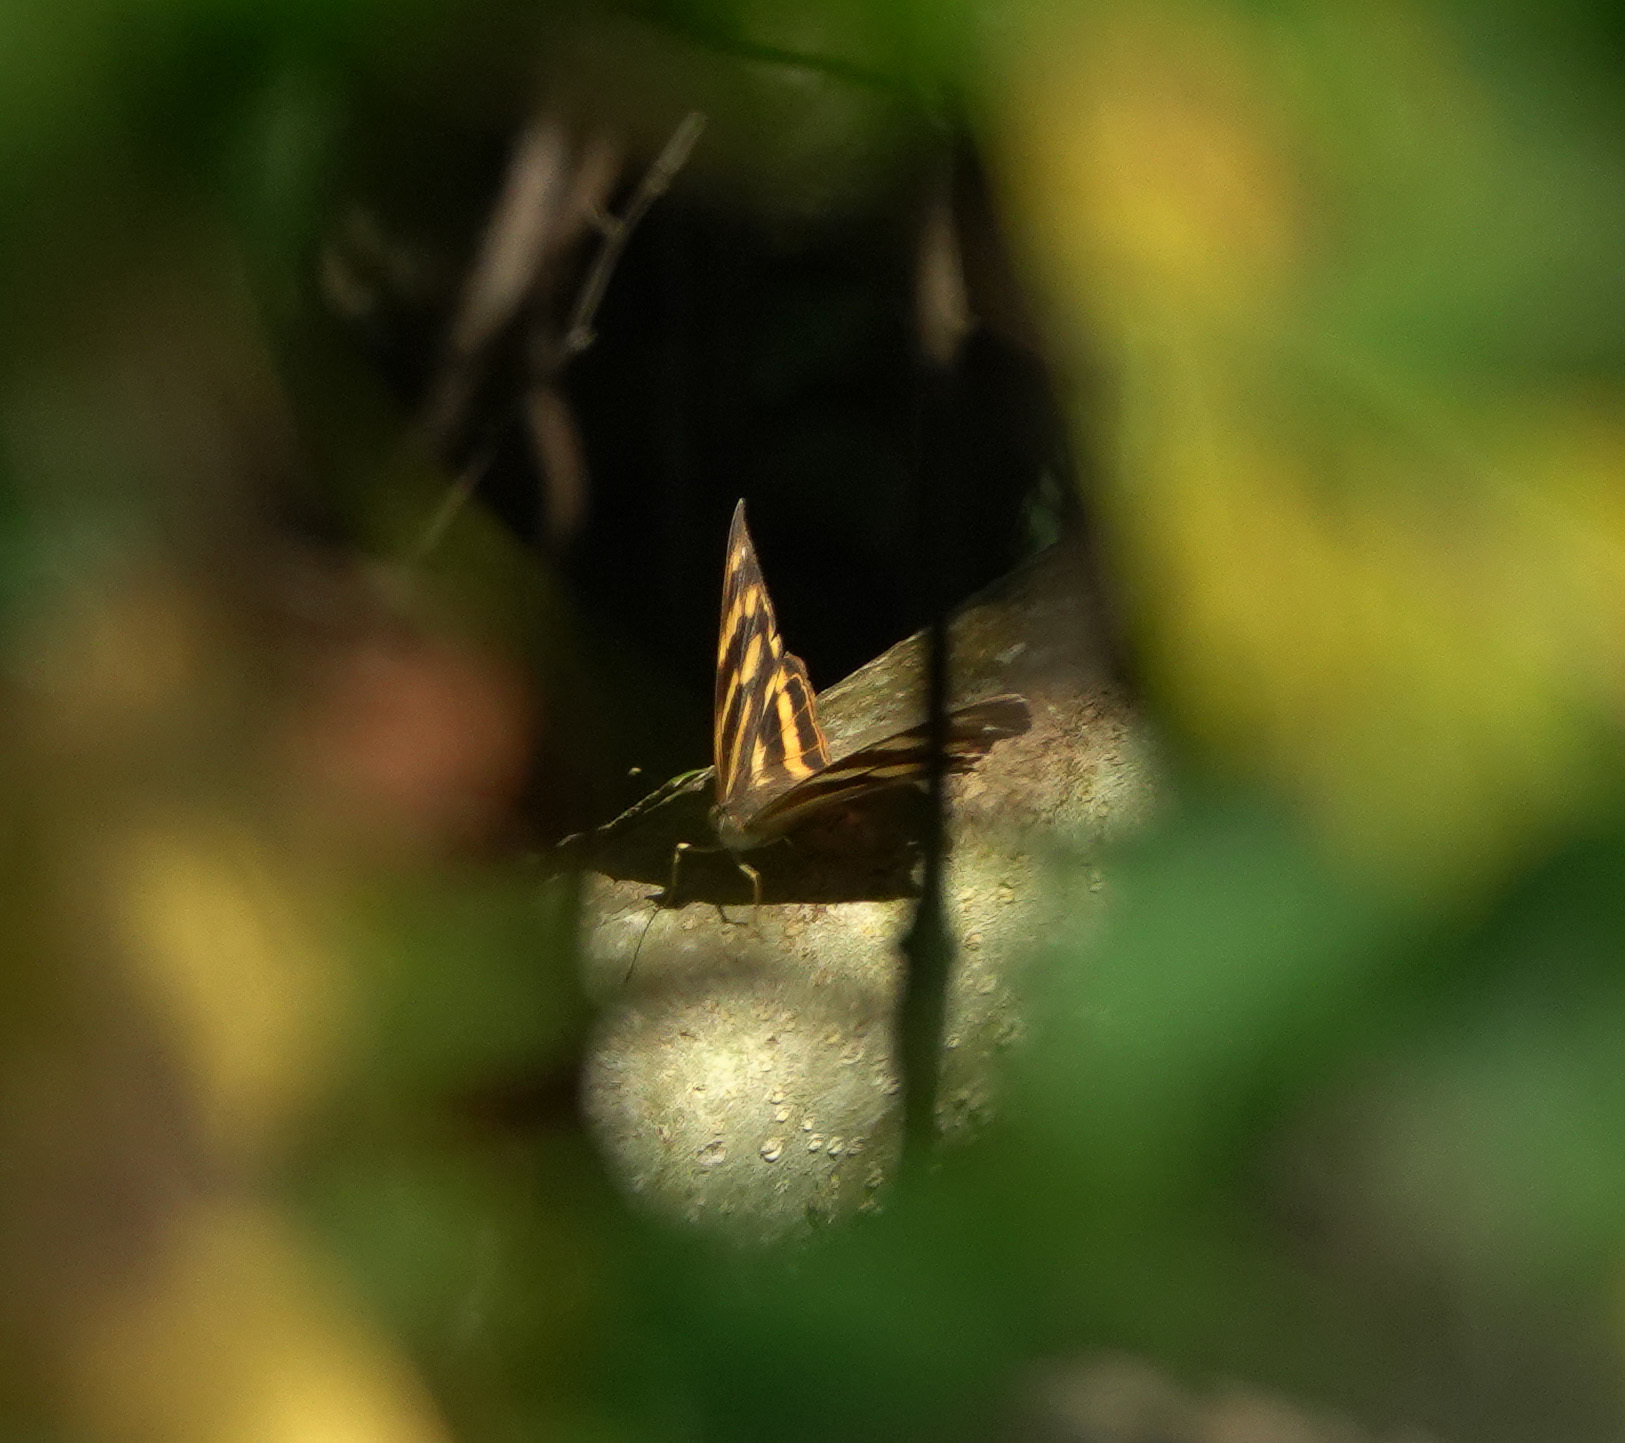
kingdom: Animalia
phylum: Arthropoda
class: Insecta
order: Lepidoptera
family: Nymphalidae
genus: Herona
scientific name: Herona marathus
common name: Yellow pasha
